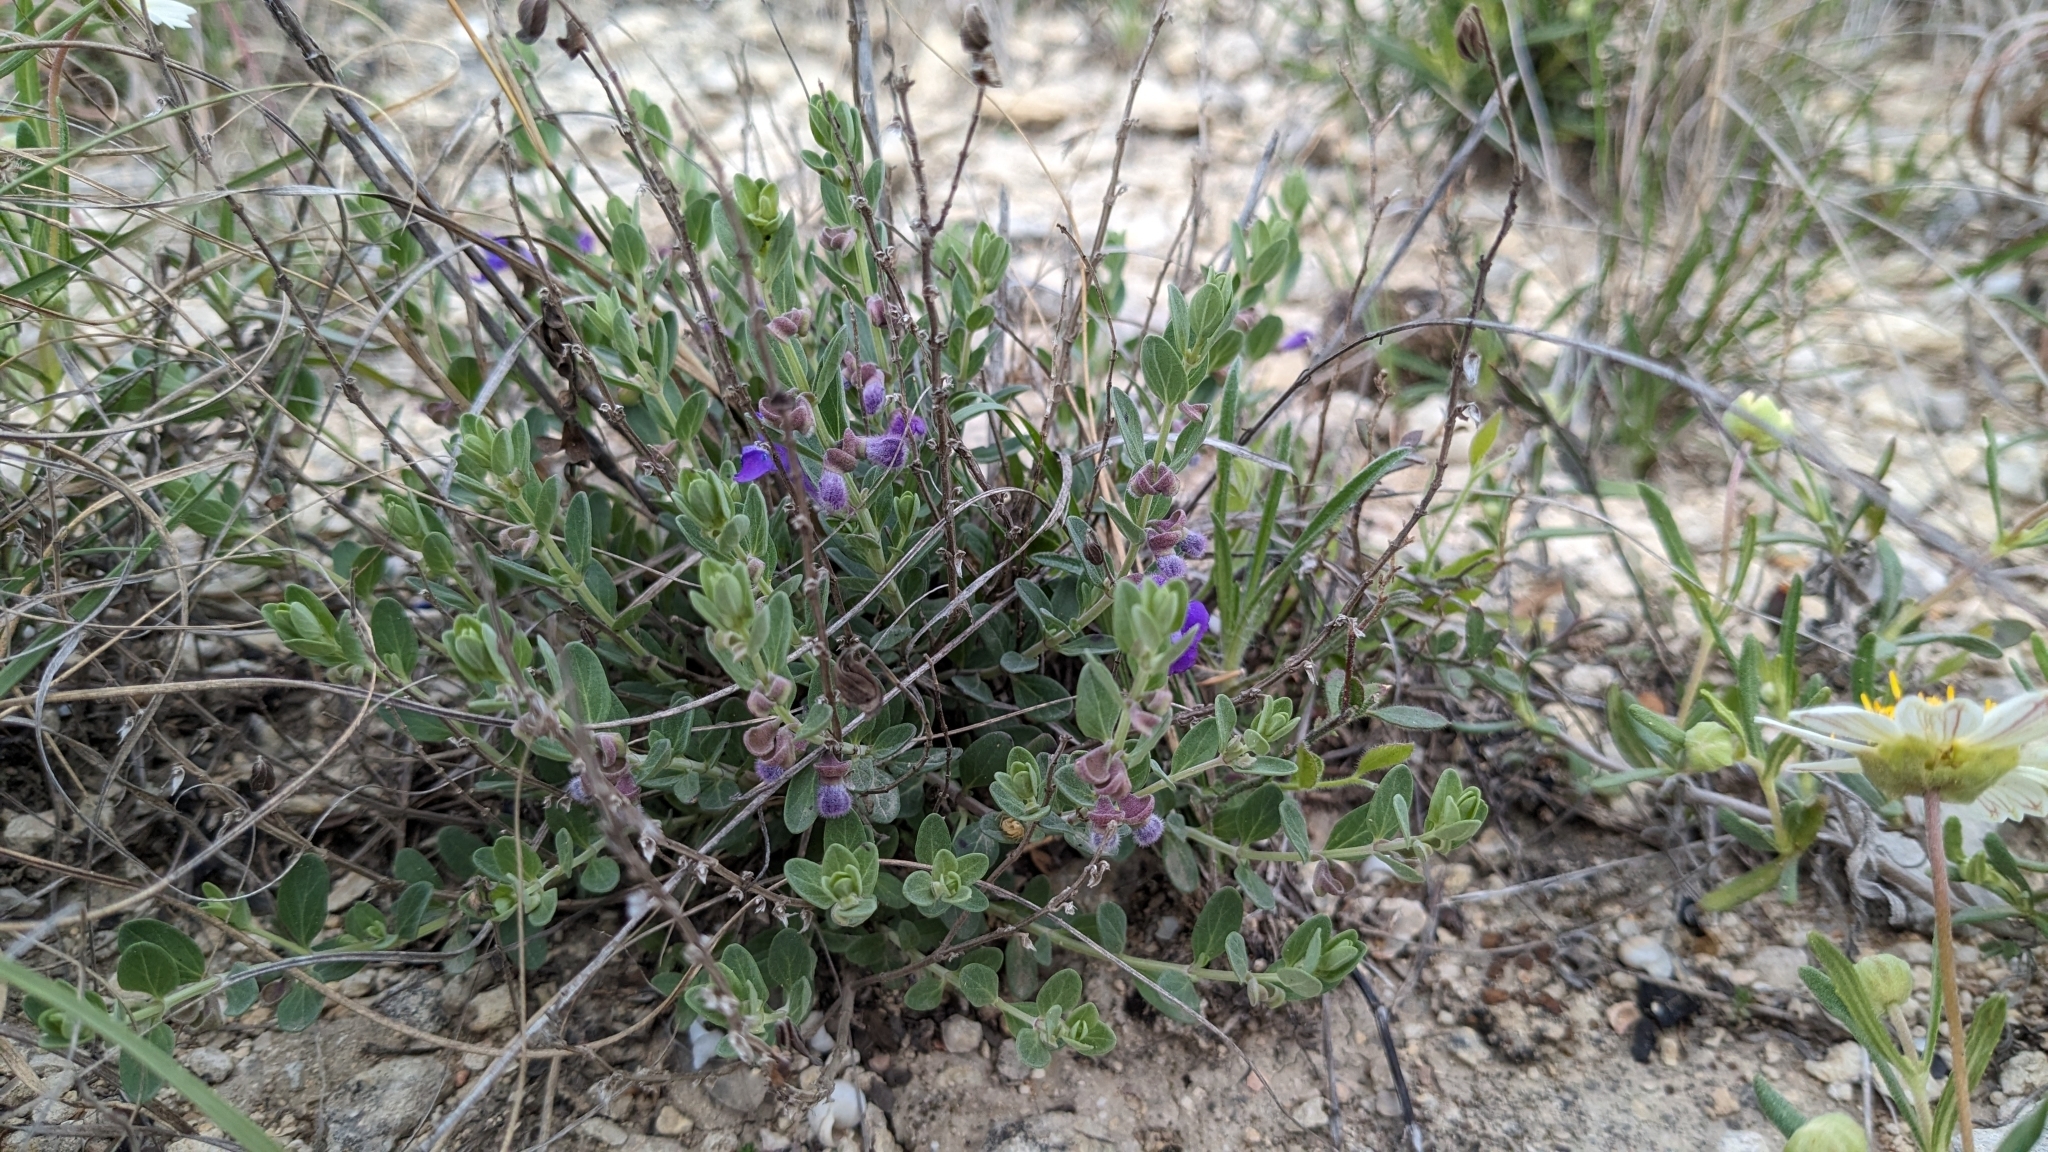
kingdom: Plantae
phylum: Tracheophyta
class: Magnoliopsida
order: Lamiales
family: Lamiaceae
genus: Scutellaria
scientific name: Scutellaria wrightii
